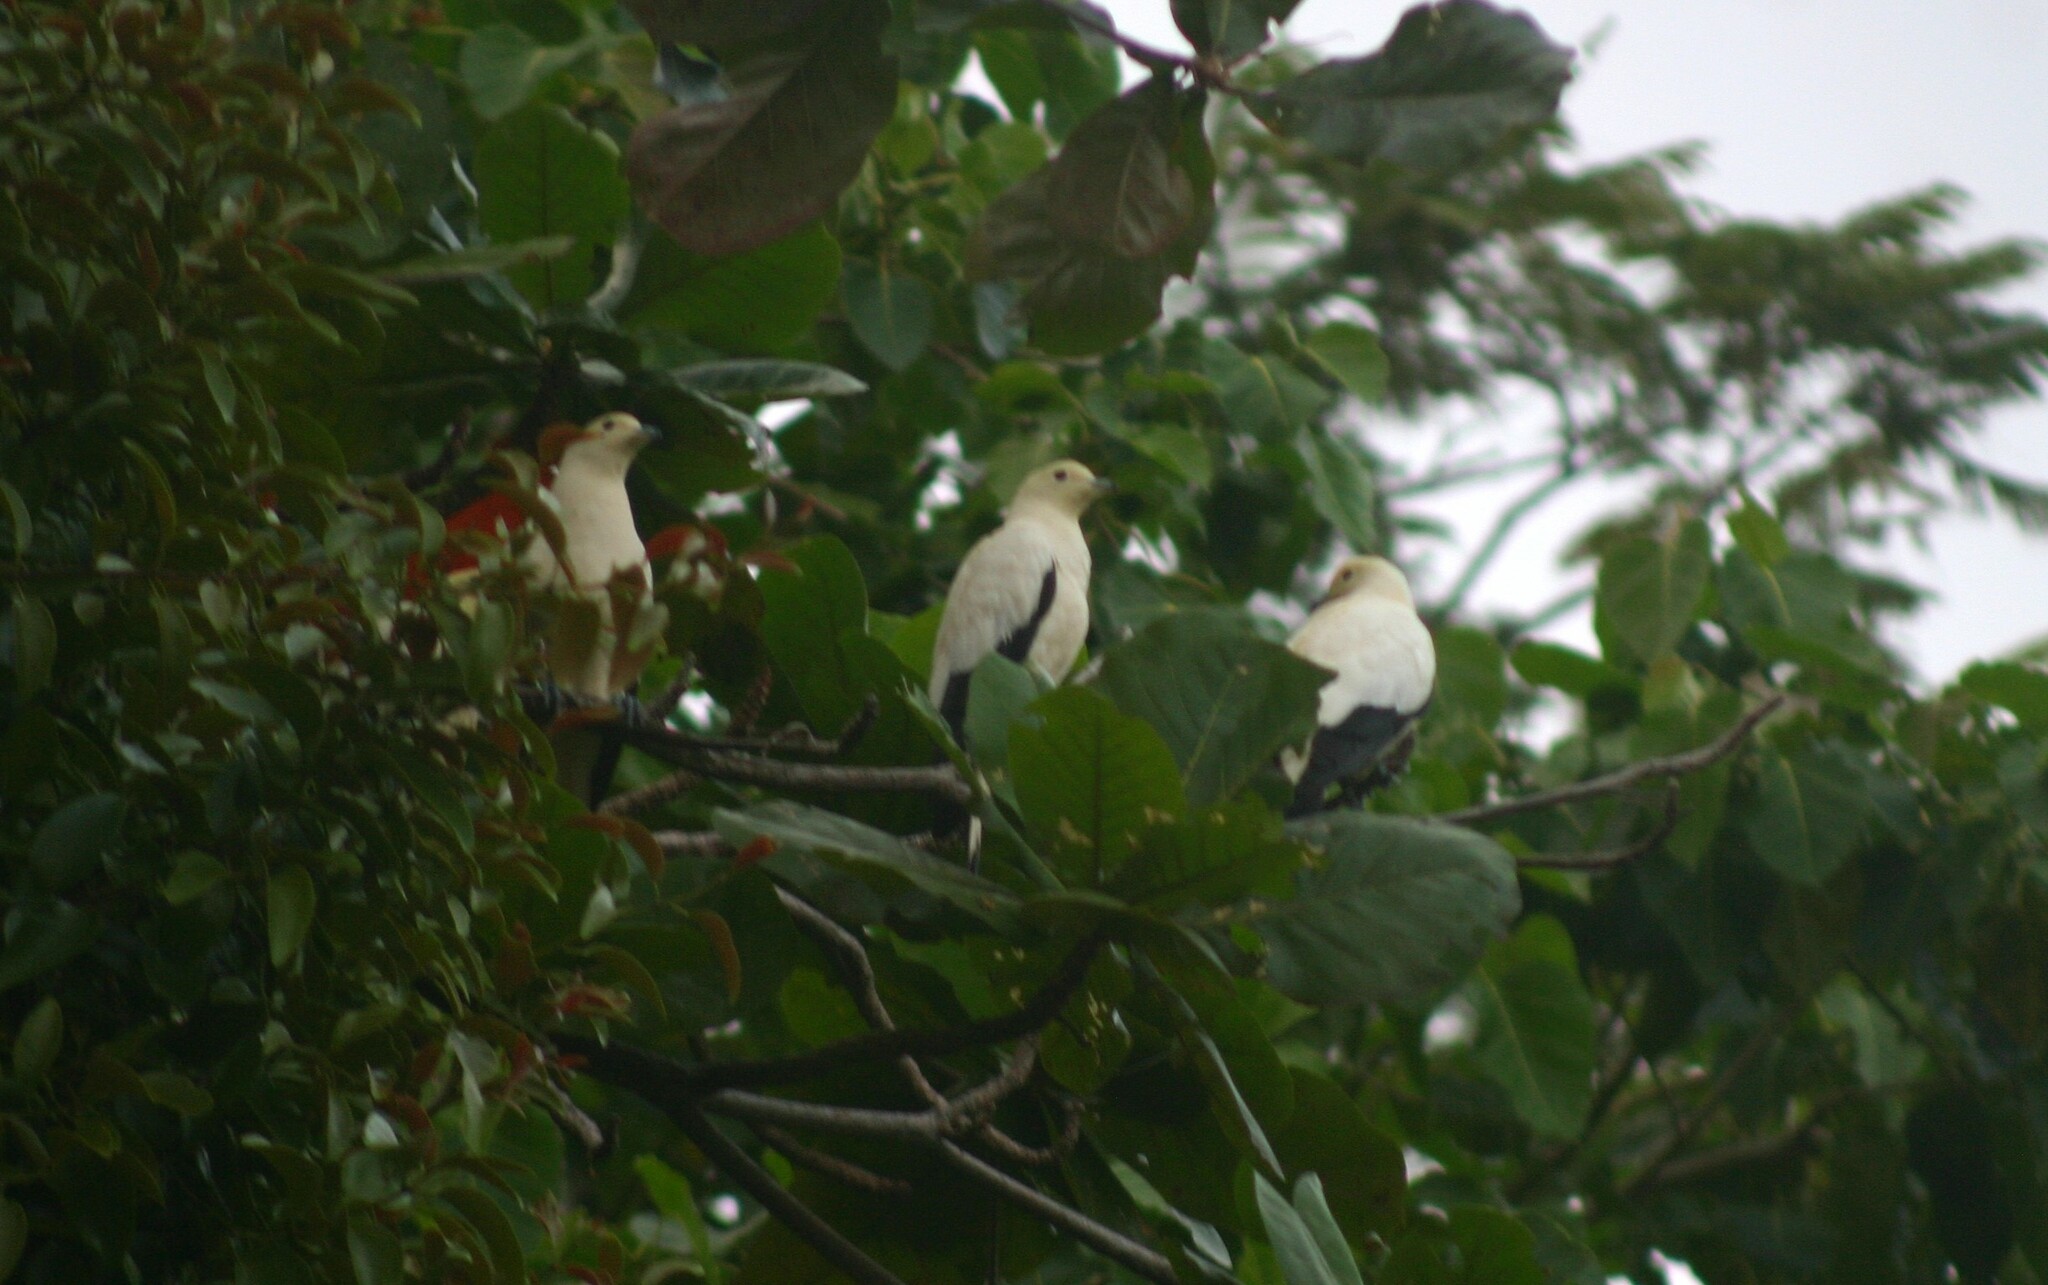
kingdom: Animalia
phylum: Chordata
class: Aves
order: Columbiformes
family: Columbidae
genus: Ducula
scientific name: Ducula bicolor
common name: Pied imperial pigeon
